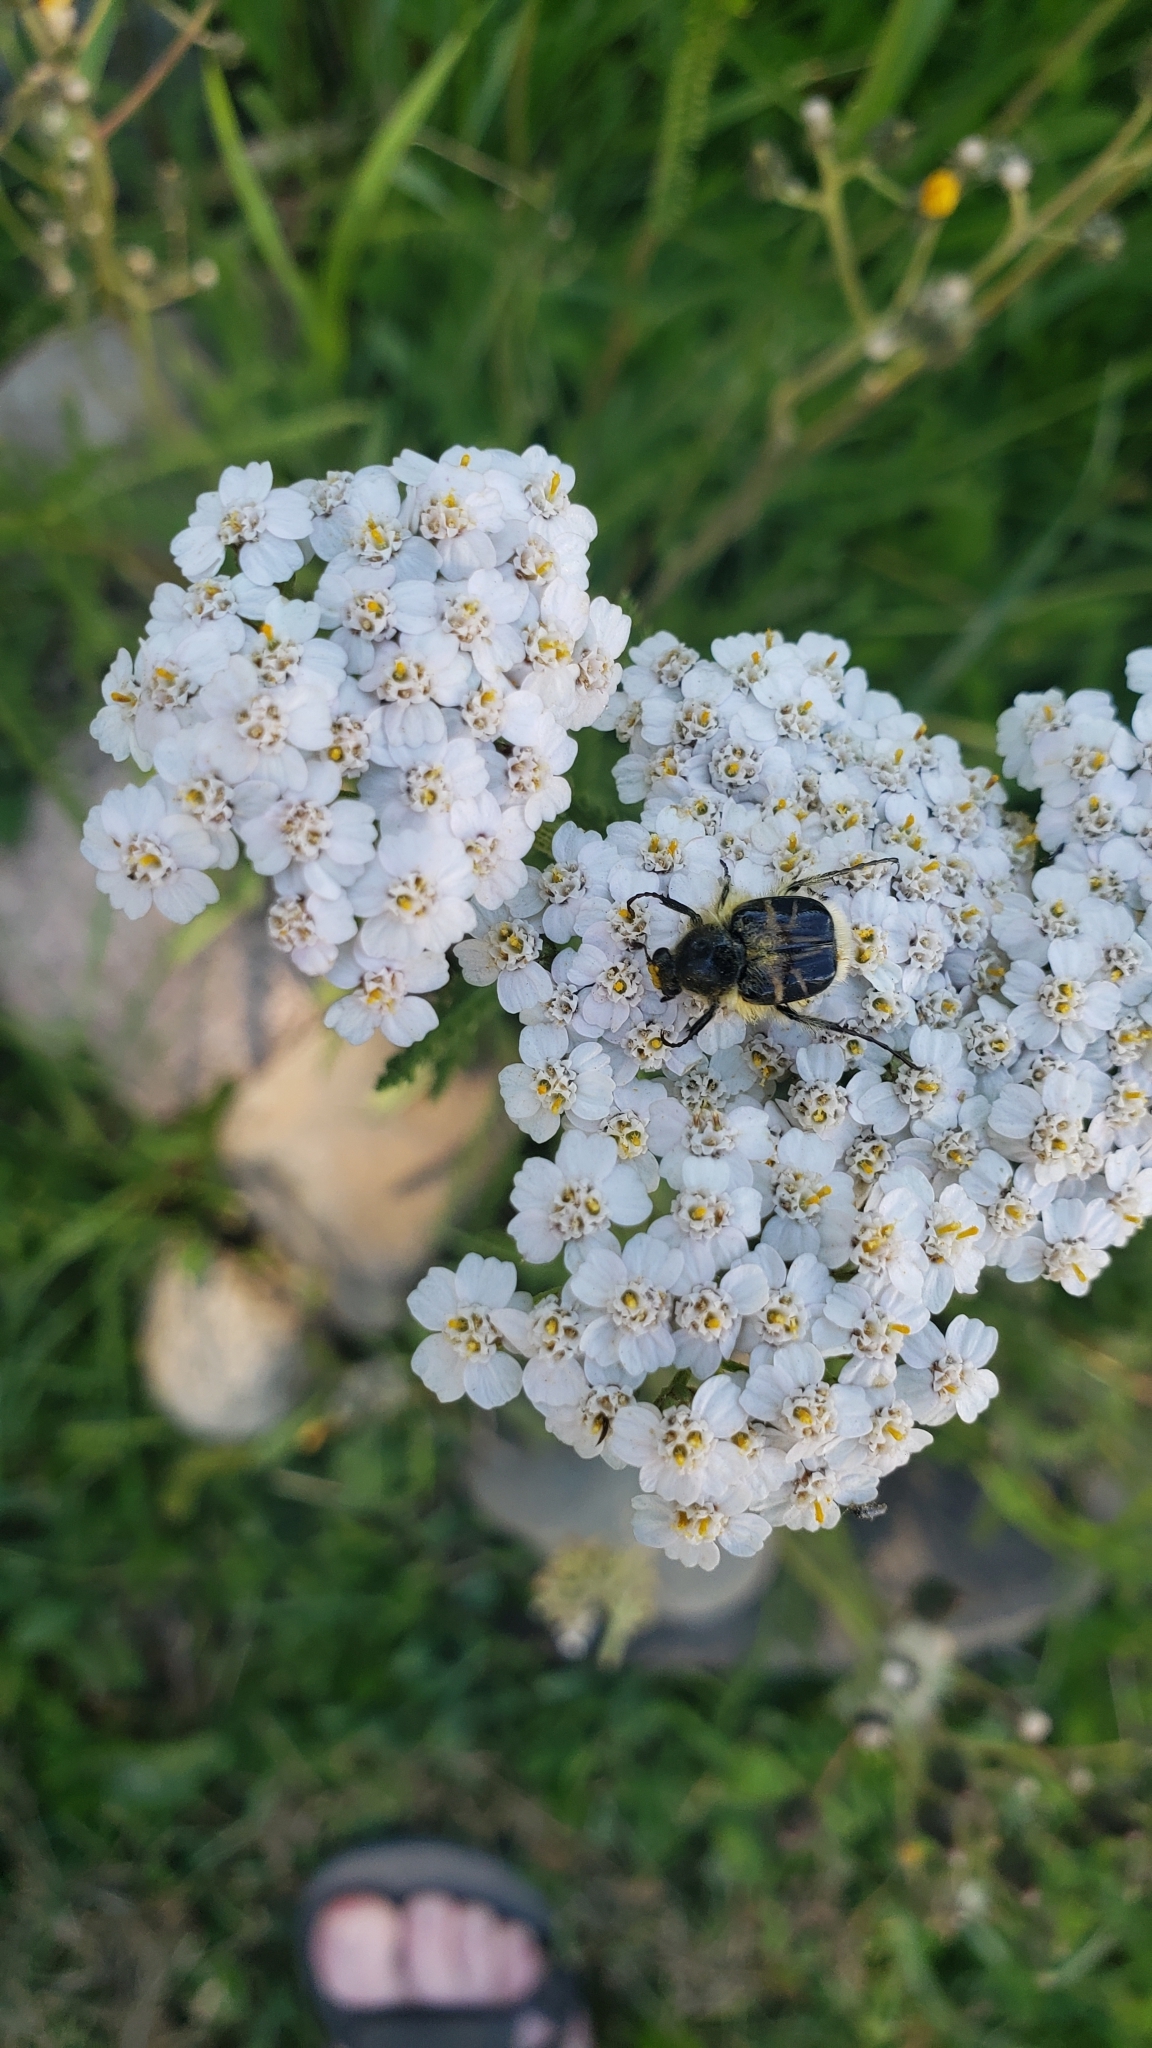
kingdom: Animalia
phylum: Arthropoda
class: Insecta
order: Coleoptera
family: Scarabaeidae
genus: Trichiotinus
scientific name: Trichiotinus assimilis
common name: Bee-mimic beetle
